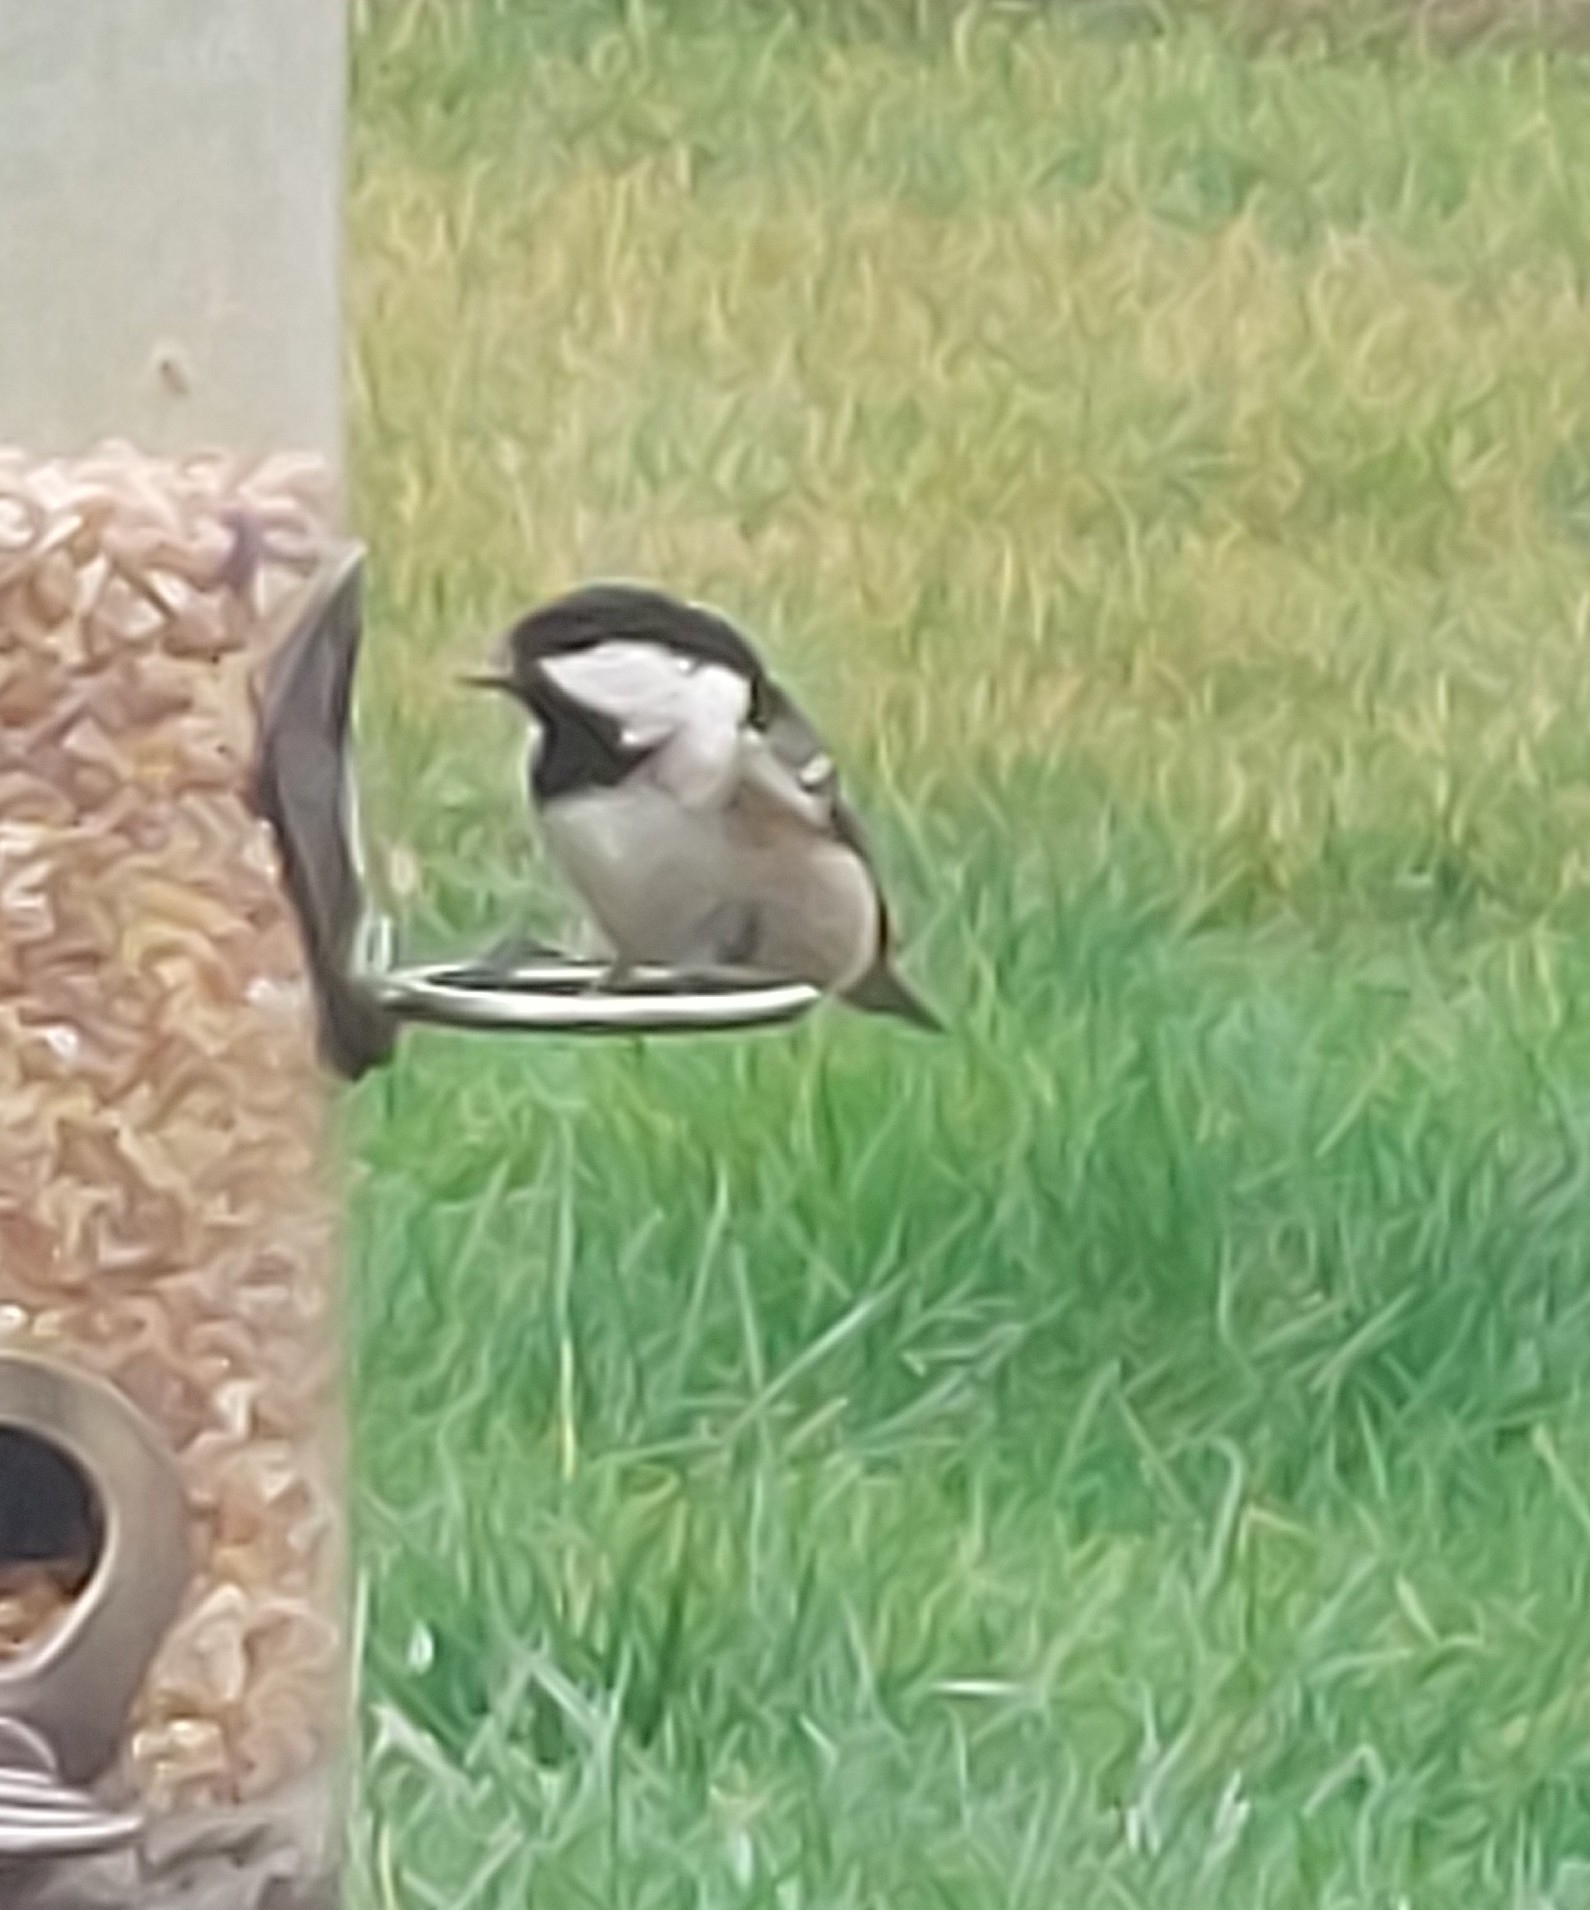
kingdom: Animalia
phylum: Chordata
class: Aves
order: Passeriformes
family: Paridae
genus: Periparus
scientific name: Periparus ater
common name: Coal tit
